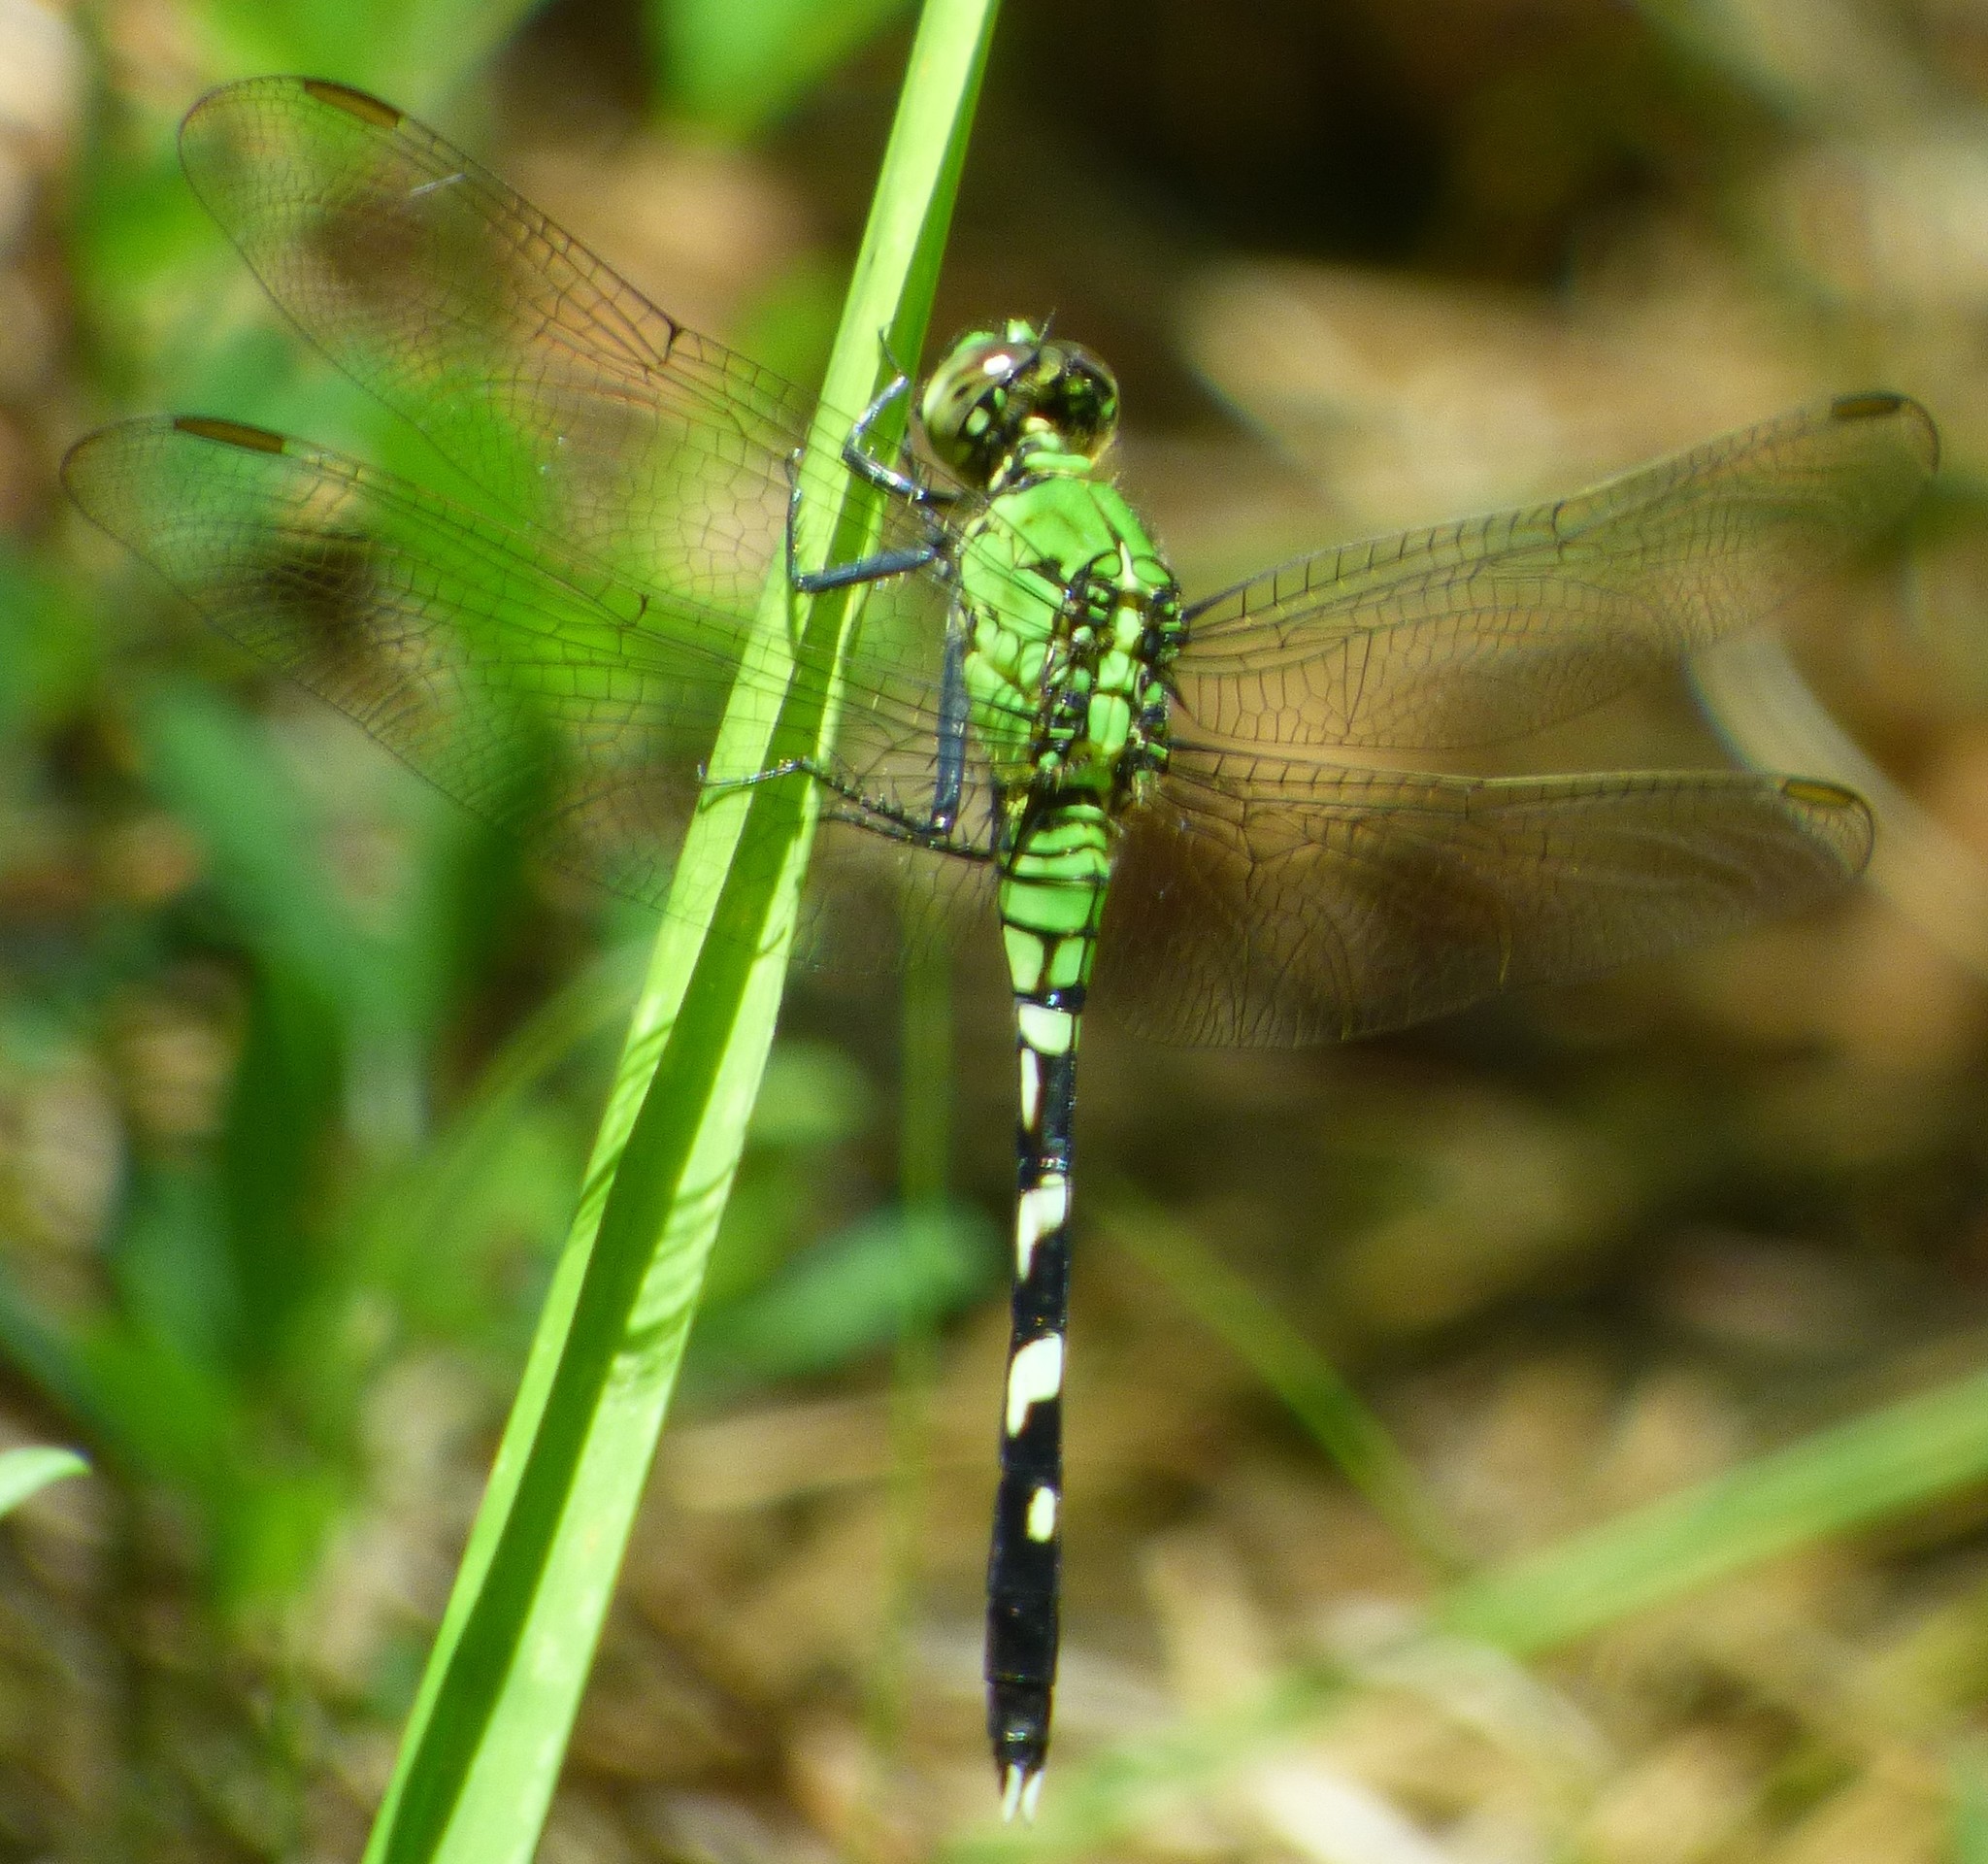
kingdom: Animalia
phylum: Arthropoda
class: Insecta
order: Odonata
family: Libellulidae
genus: Erythemis
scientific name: Erythemis simplicicollis
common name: Eastern pondhawk
